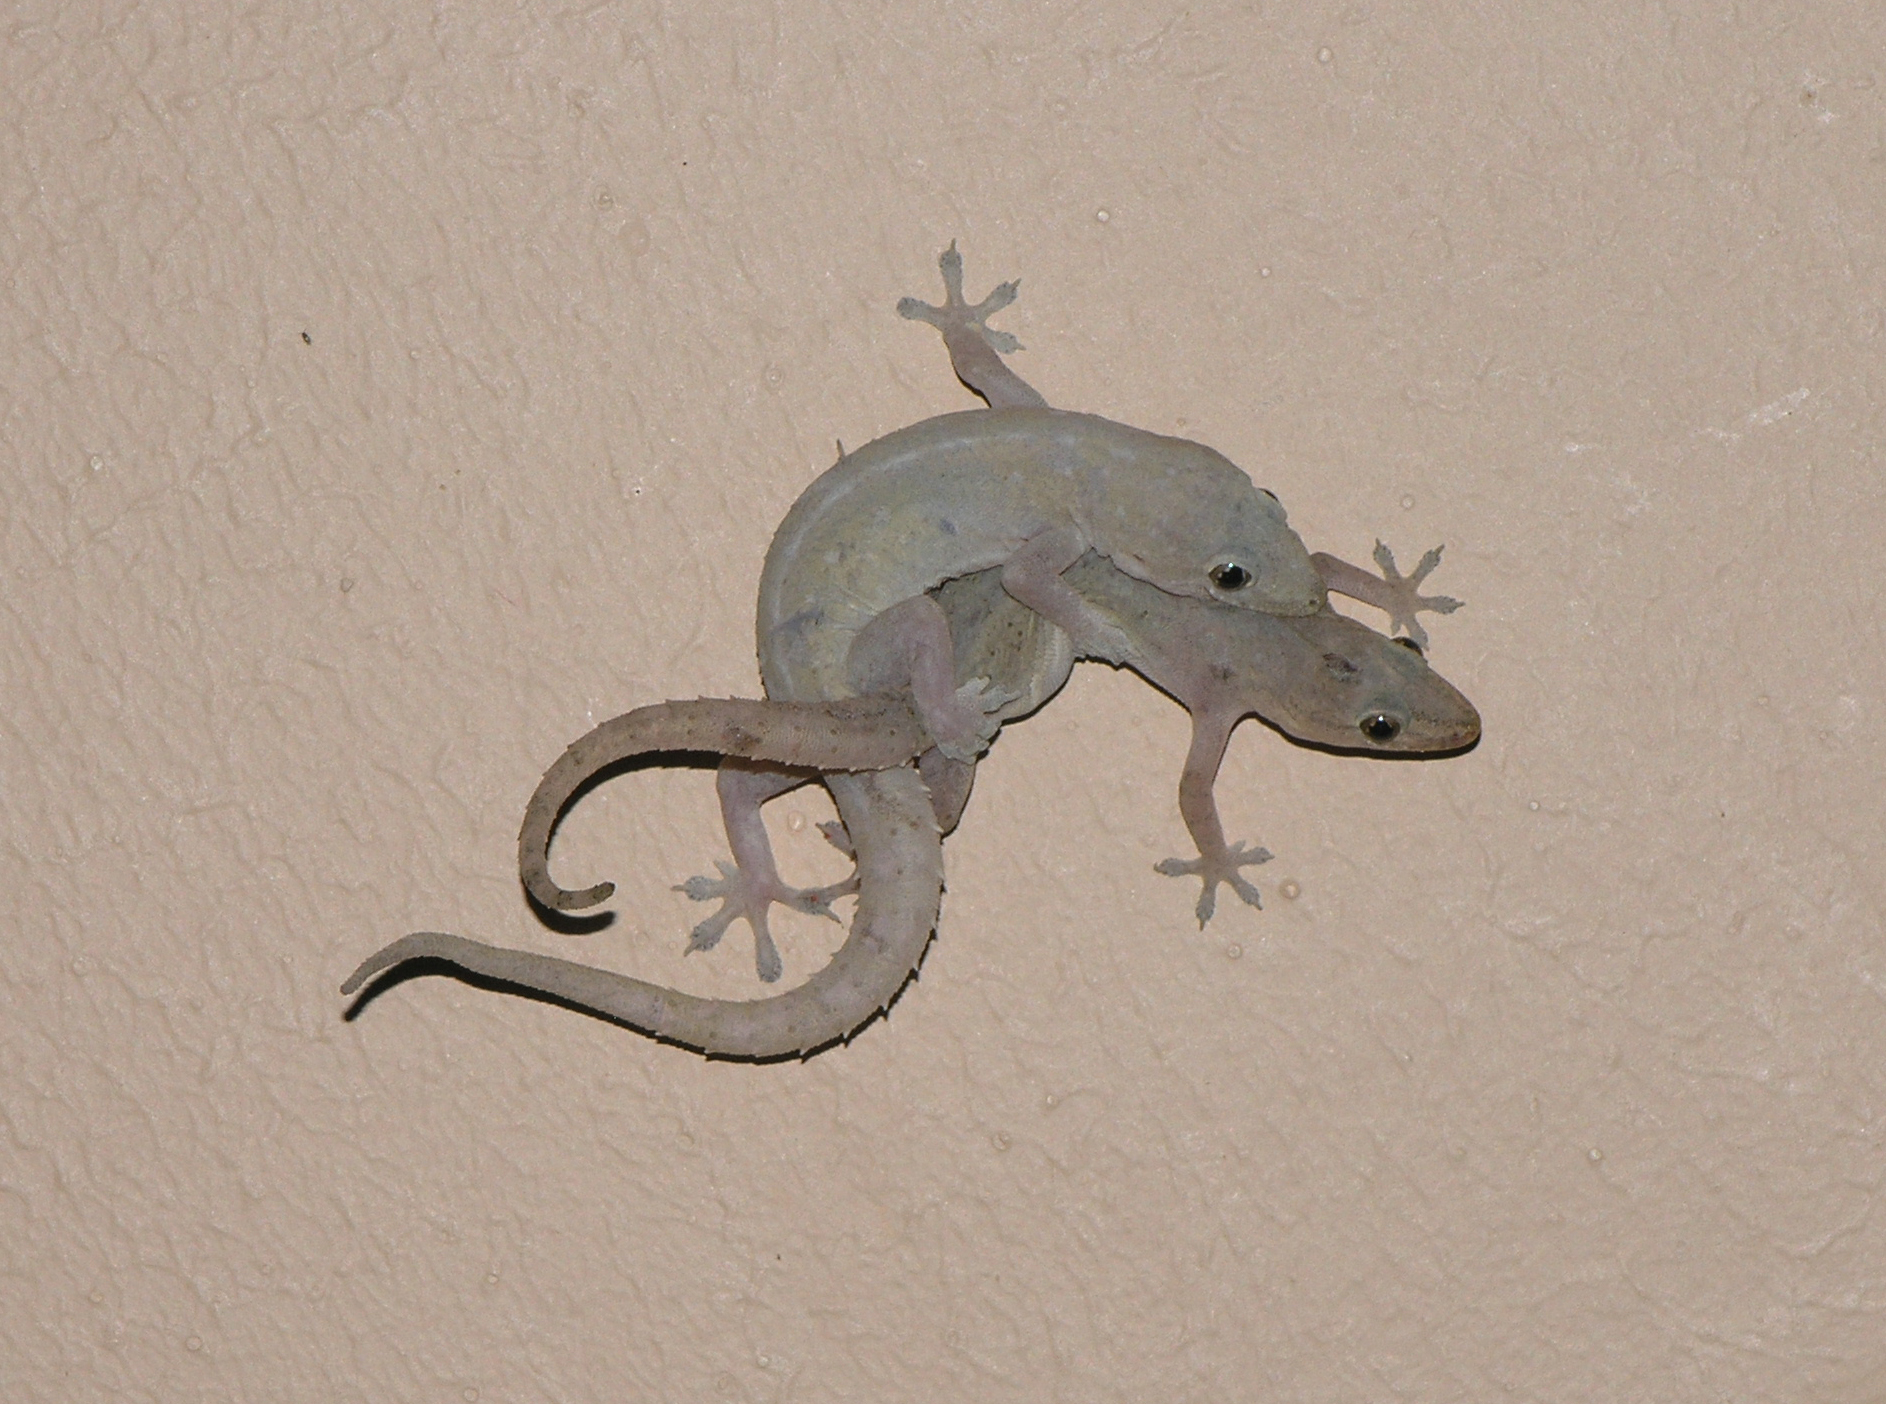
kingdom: Animalia
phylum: Chordata
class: Squamata
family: Gekkonidae
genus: Hemidactylus
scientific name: Hemidactylus frenatus
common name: Common house gecko
